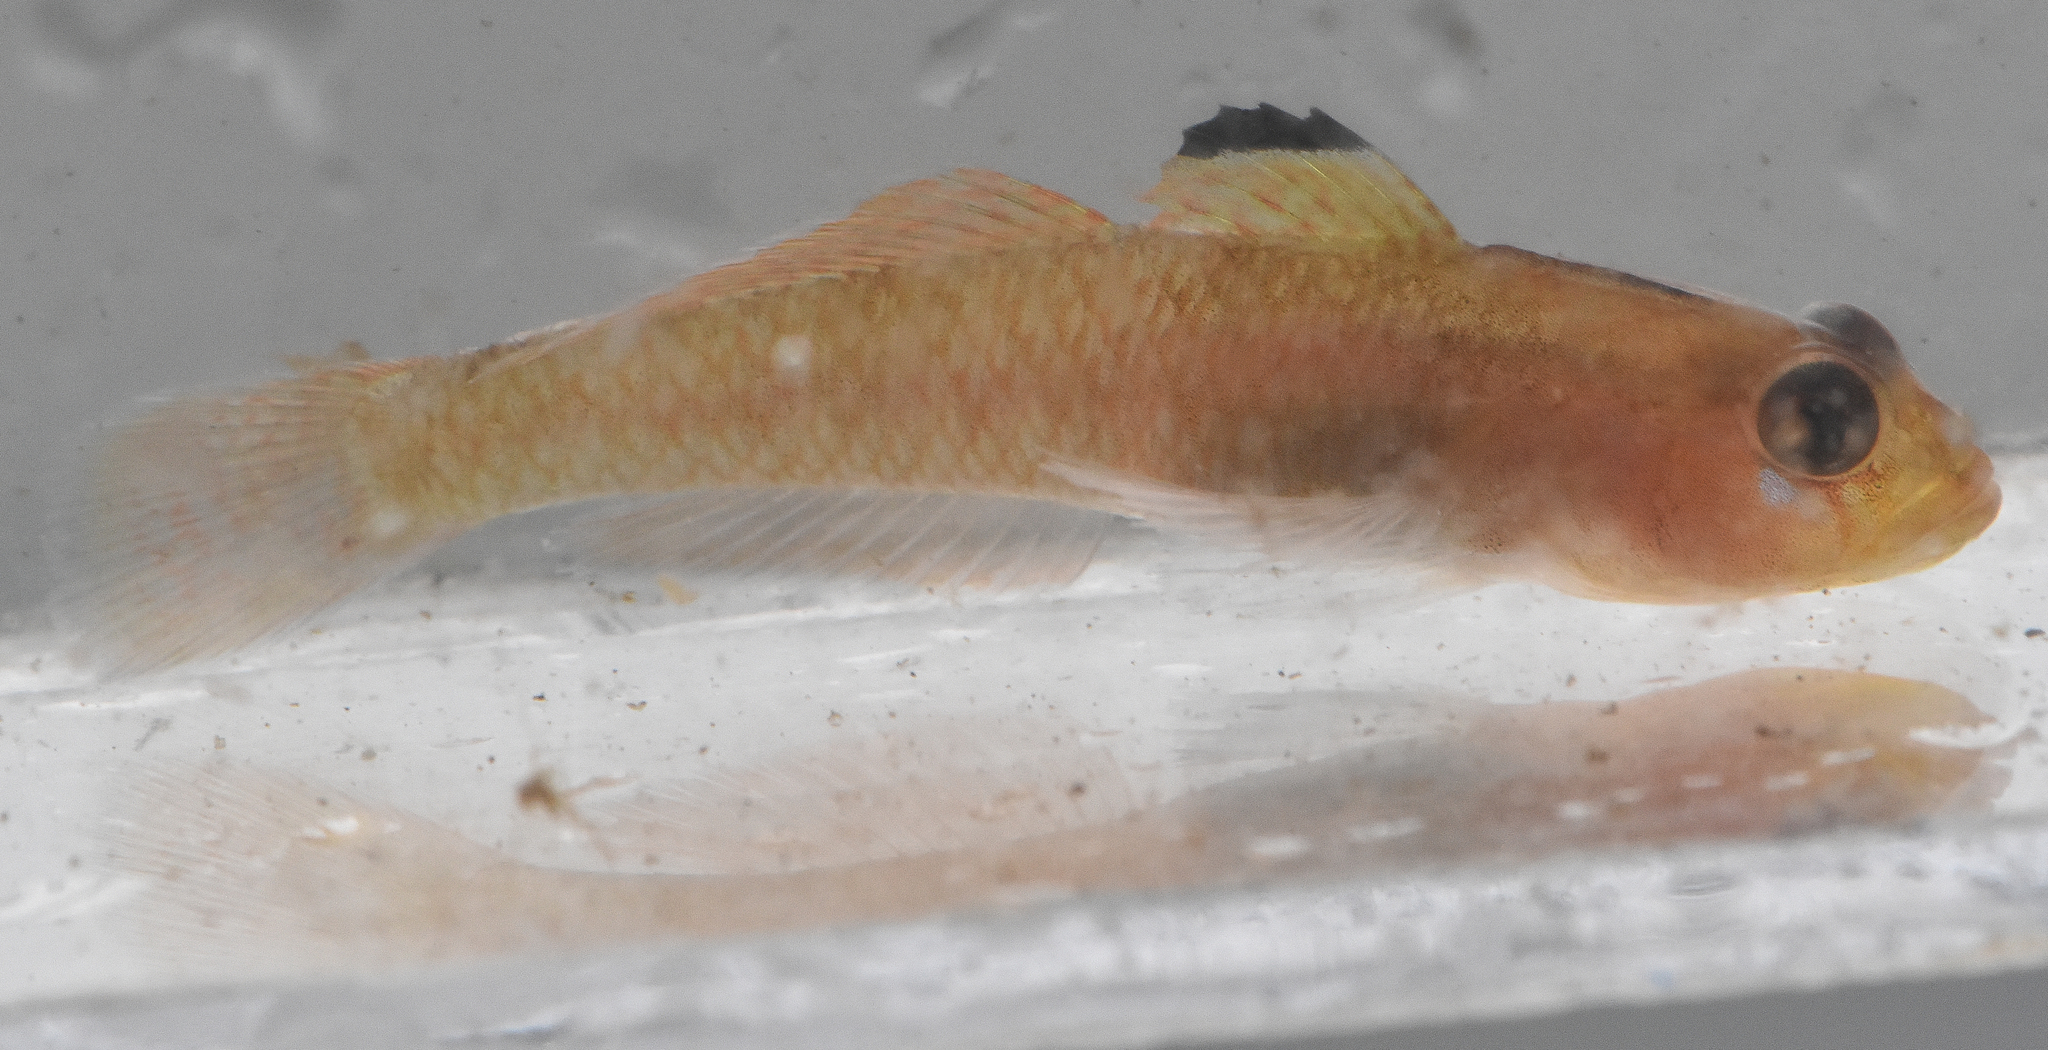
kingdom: Animalia
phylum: Chordata
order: Perciformes
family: Gobiidae
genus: Rhinogobiops
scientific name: Rhinogobiops nicholsii
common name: Blackeye goby
